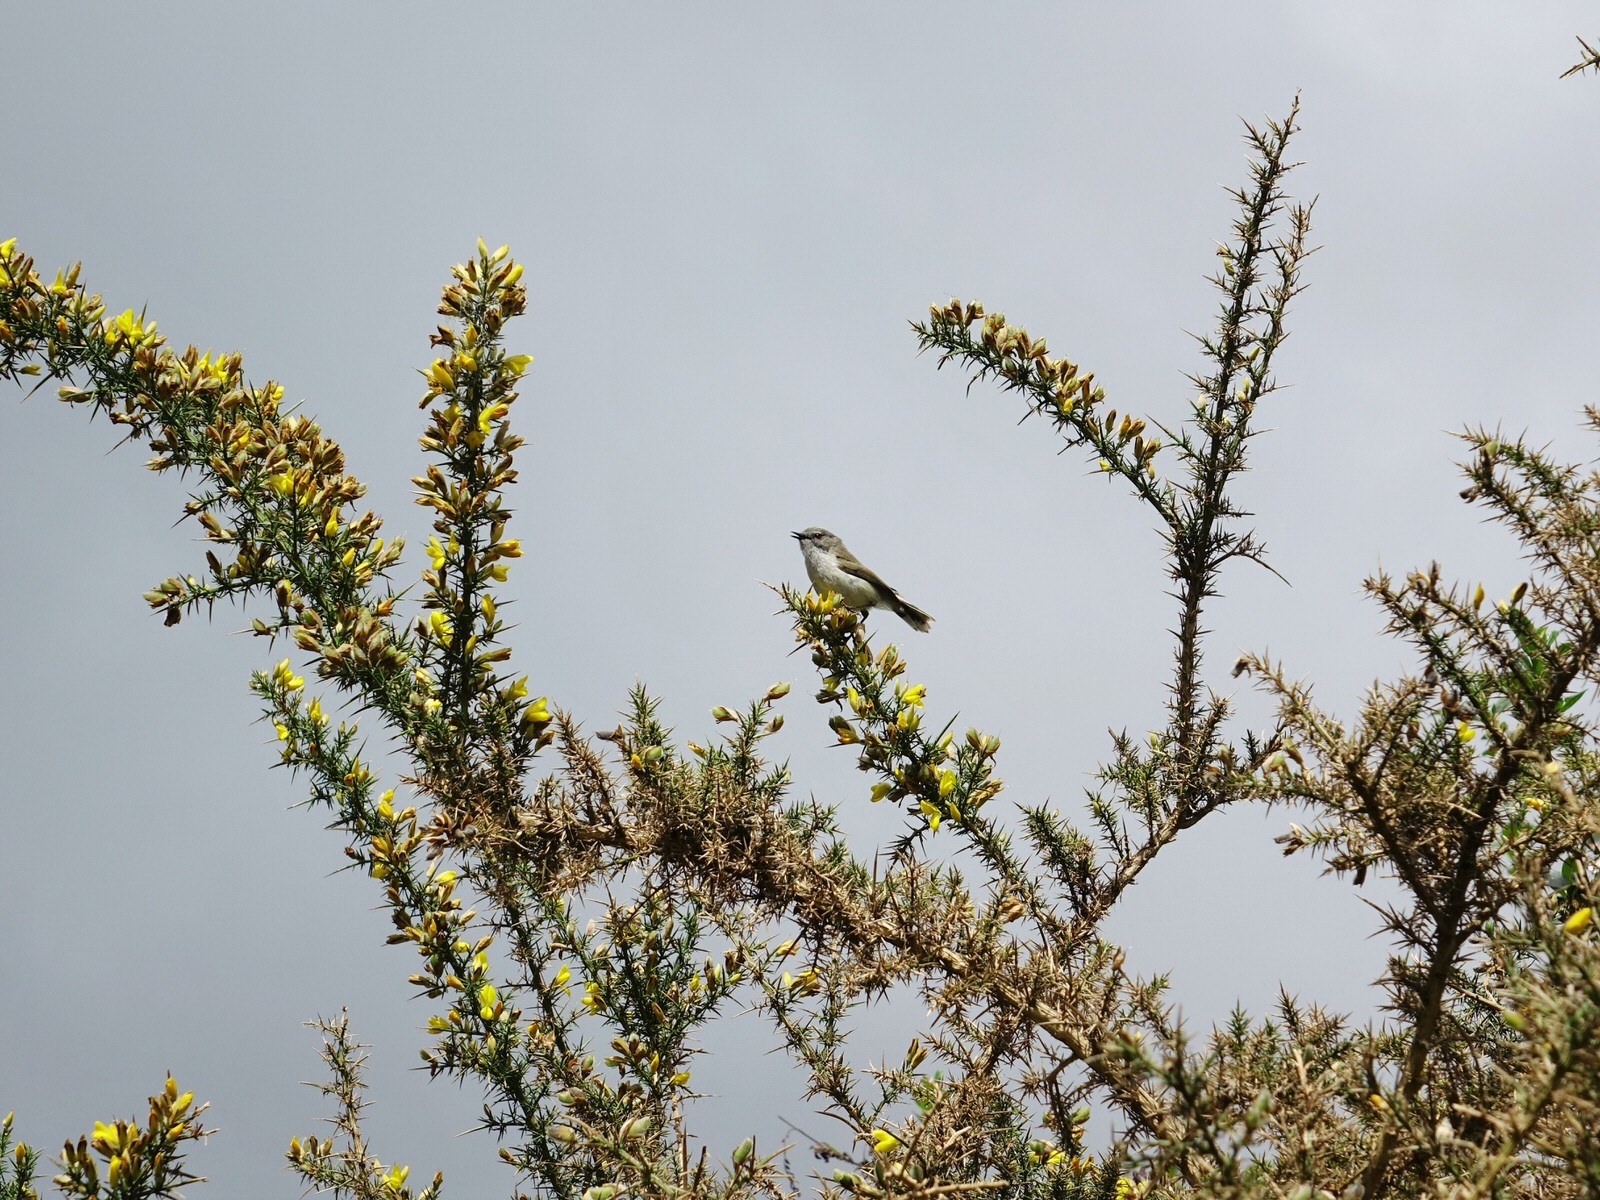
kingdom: Animalia
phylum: Chordata
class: Aves
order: Passeriformes
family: Acanthizidae
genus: Gerygone
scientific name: Gerygone igata
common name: Grey gerygone
